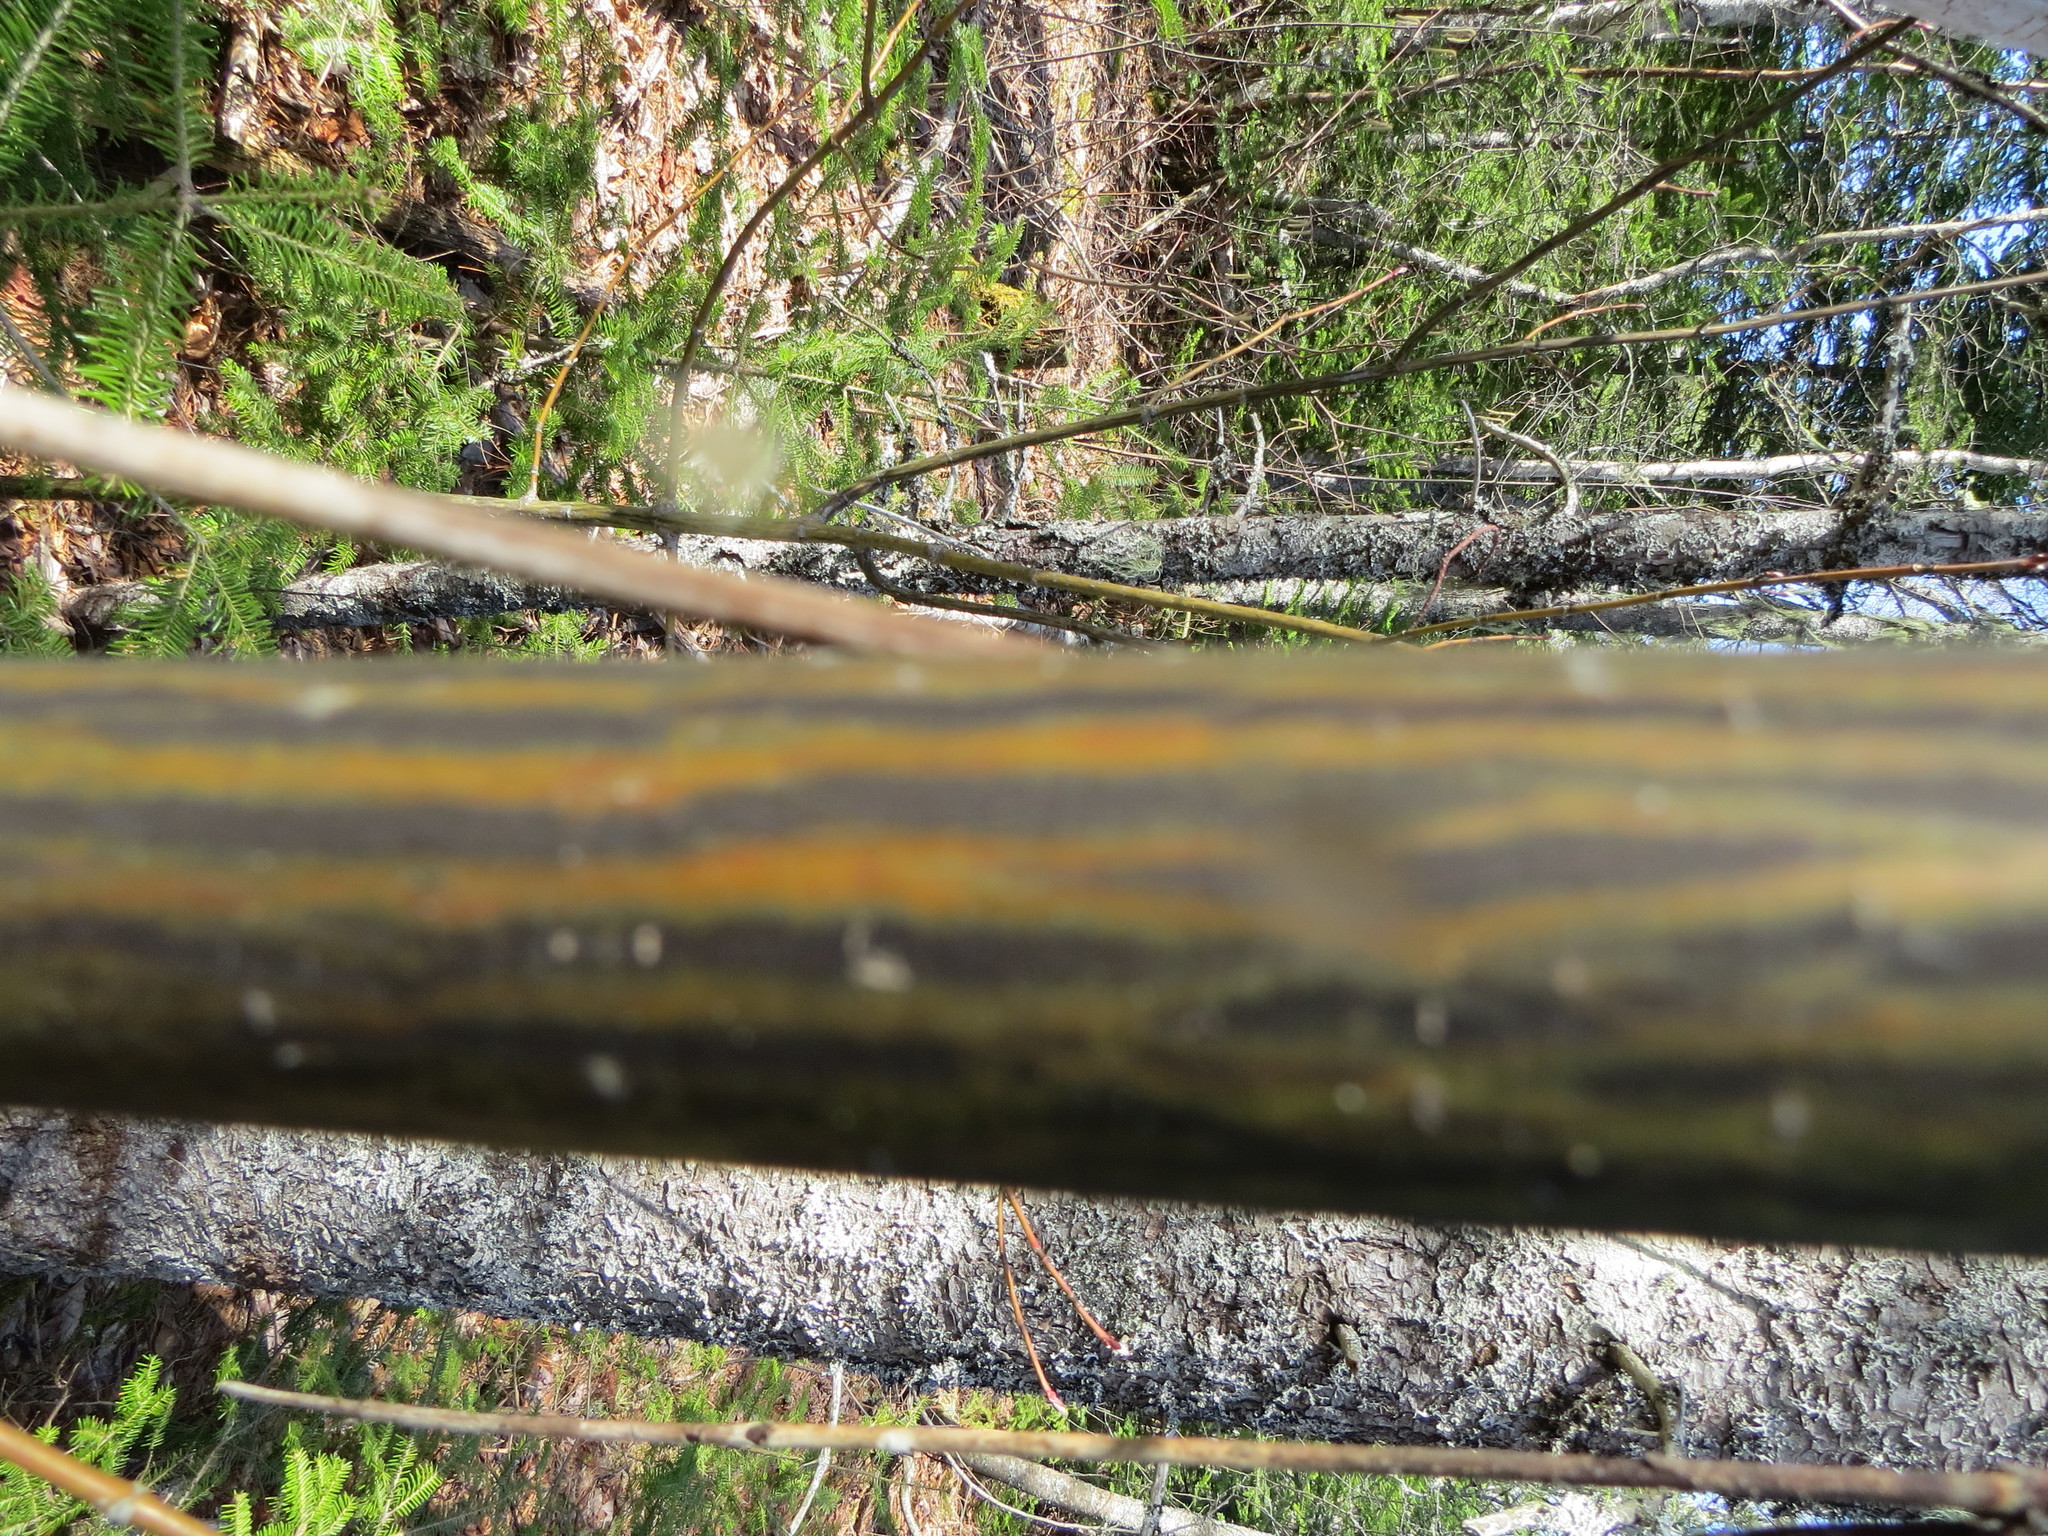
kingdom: Plantae
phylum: Tracheophyta
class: Magnoliopsida
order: Sapindales
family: Sapindaceae
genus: Acer
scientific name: Acer pensylvanicum
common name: Moosewood
